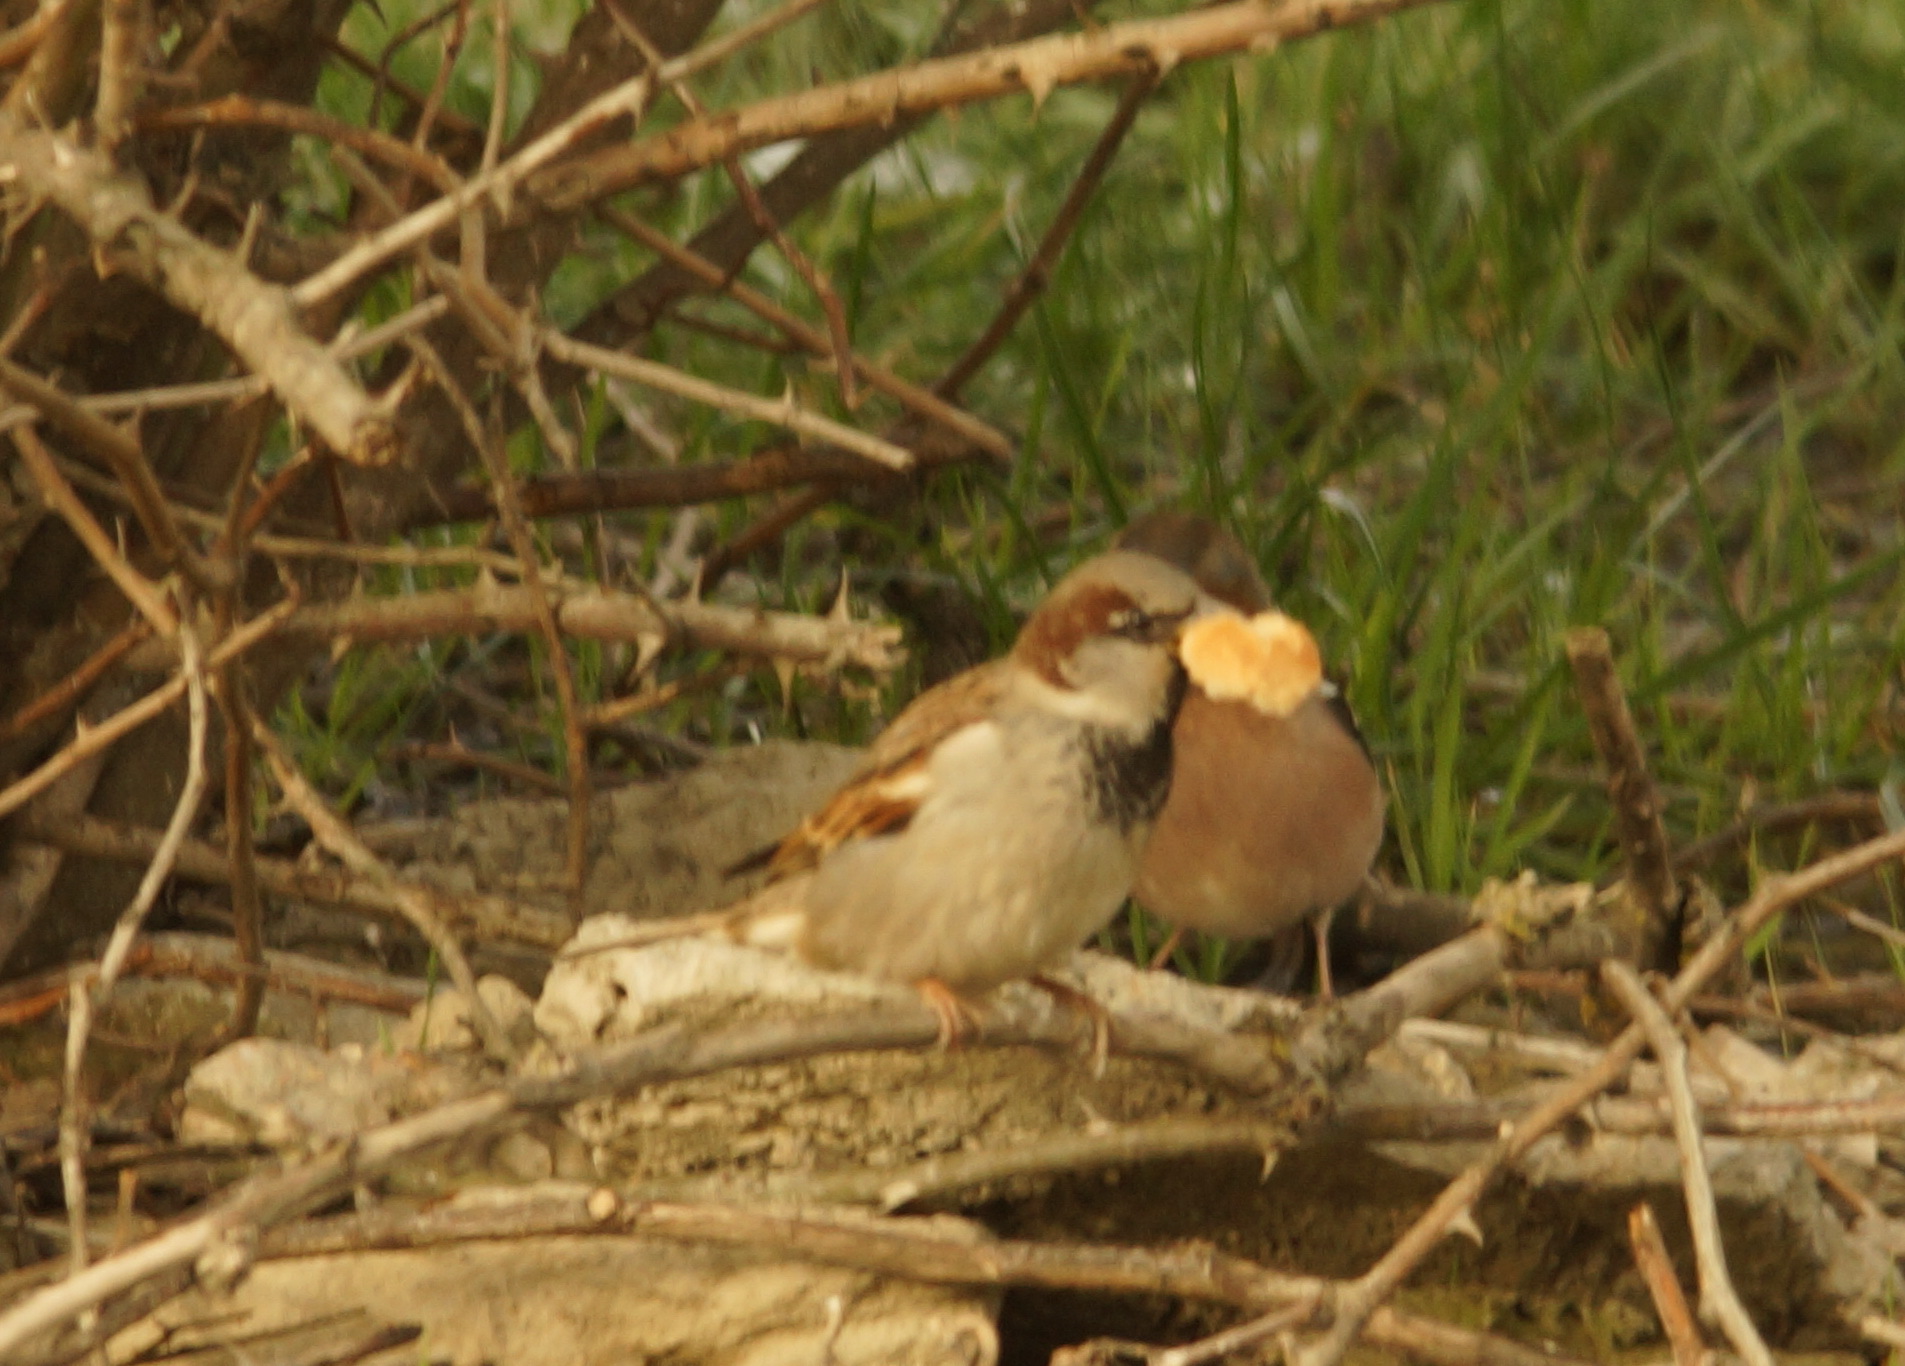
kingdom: Animalia
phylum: Chordata
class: Aves
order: Passeriformes
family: Passeridae
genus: Passer
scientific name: Passer domesticus
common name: House sparrow
